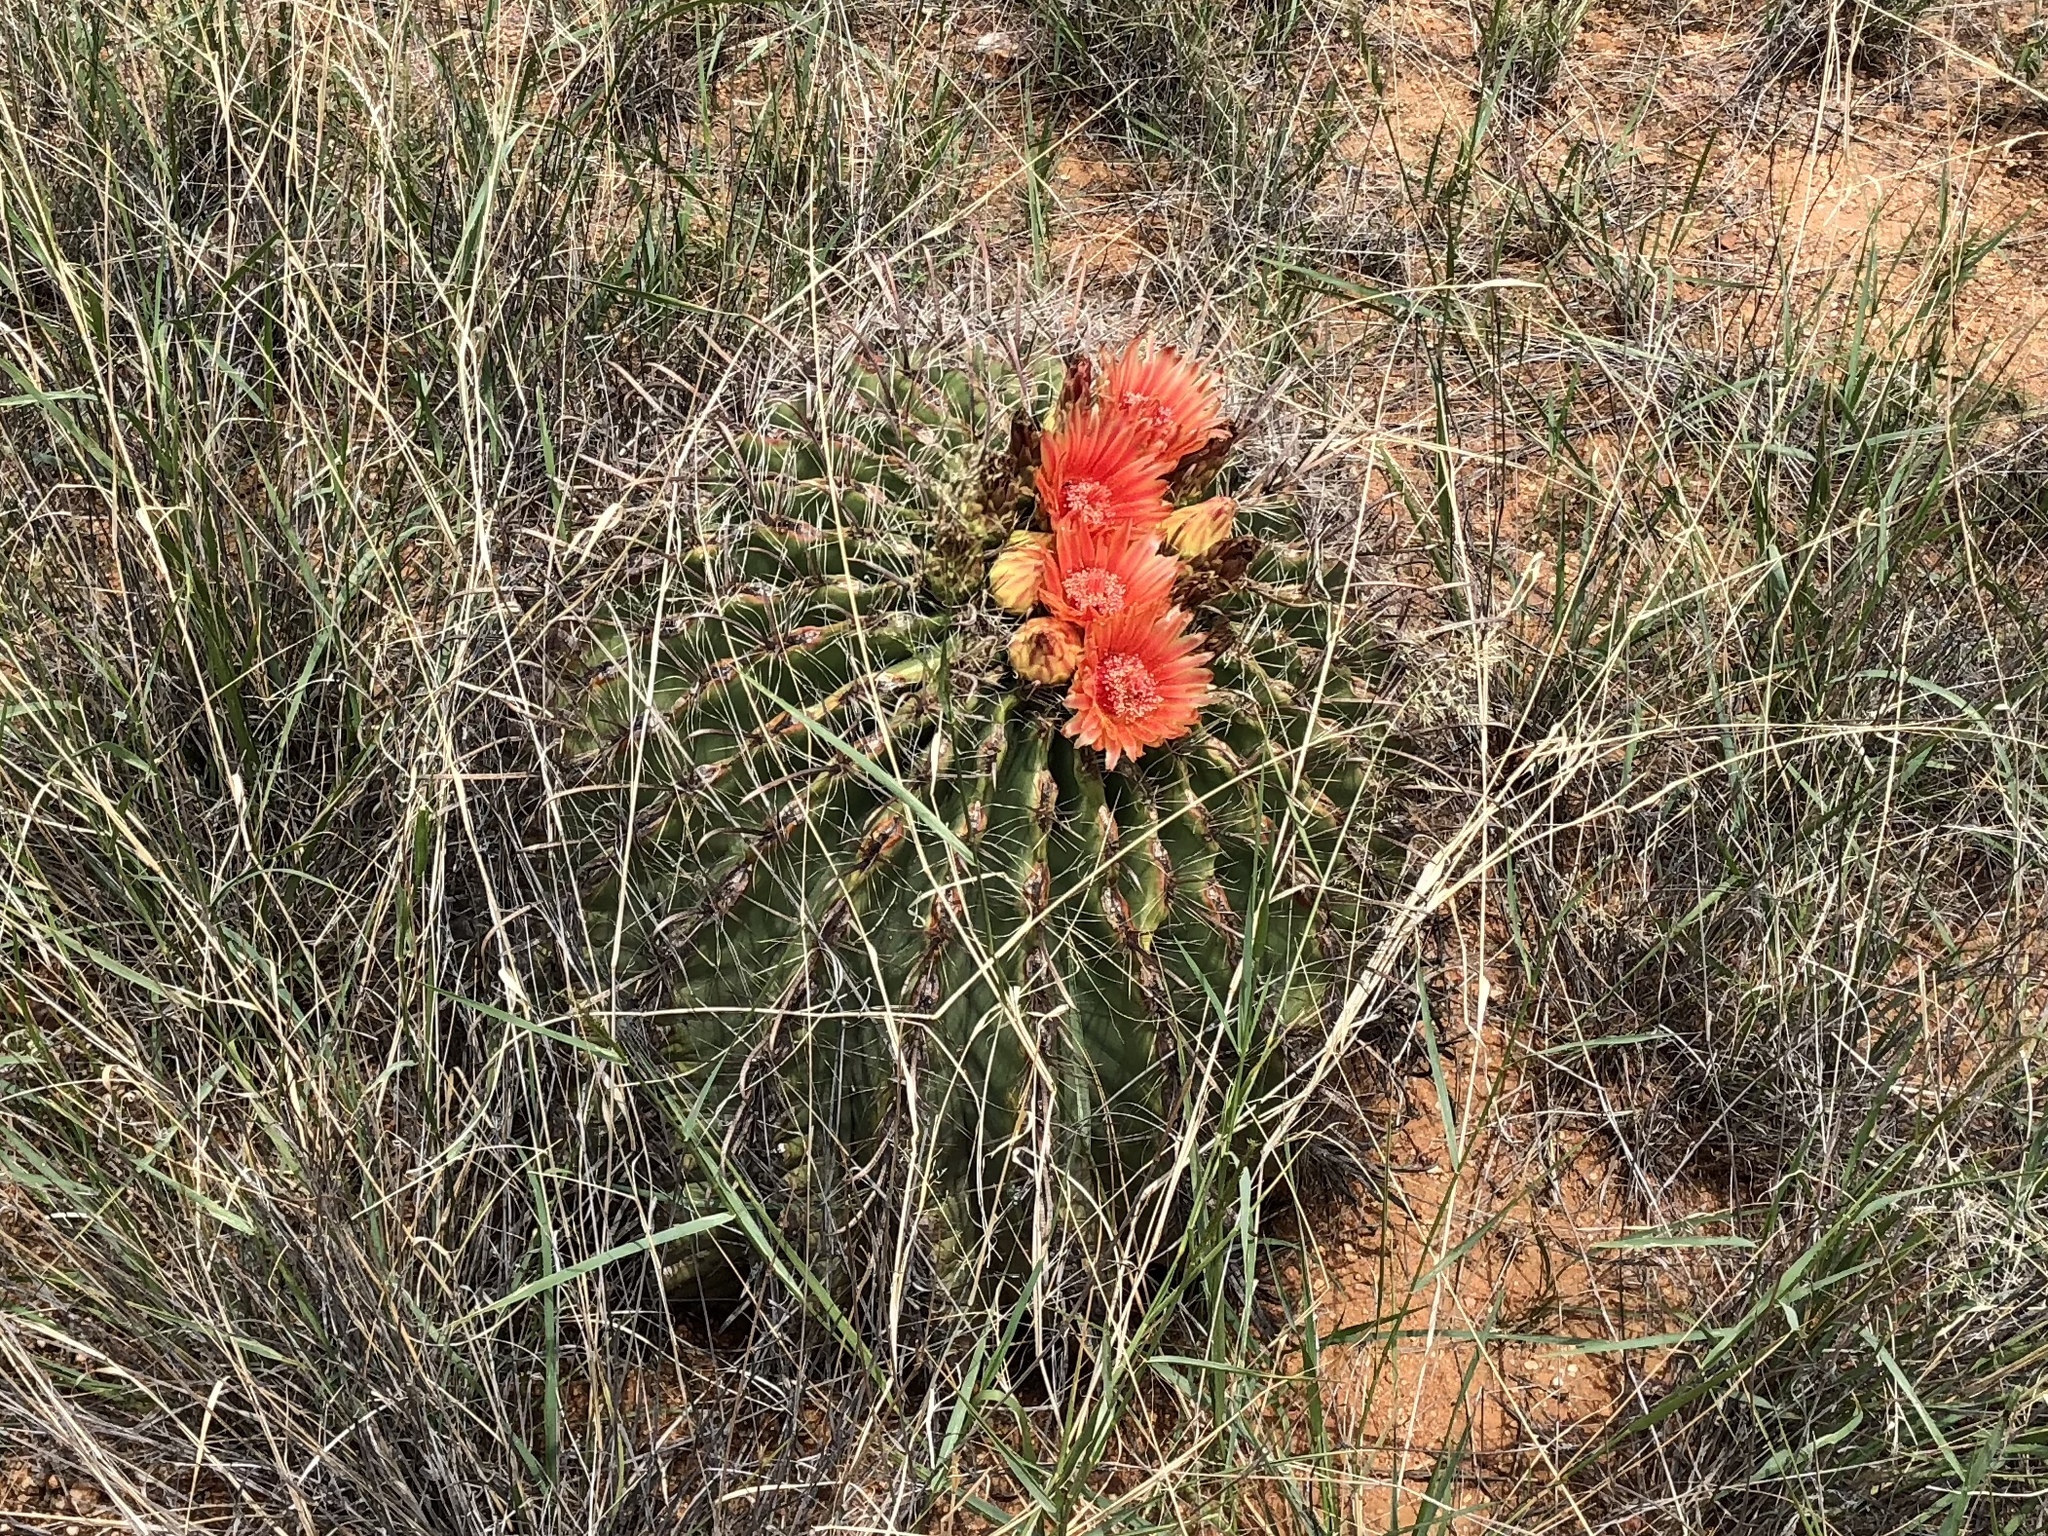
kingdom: Plantae
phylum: Tracheophyta
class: Magnoliopsida
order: Caryophyllales
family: Cactaceae
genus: Ferocactus
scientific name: Ferocactus wislizeni
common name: Candy barrel cactus
